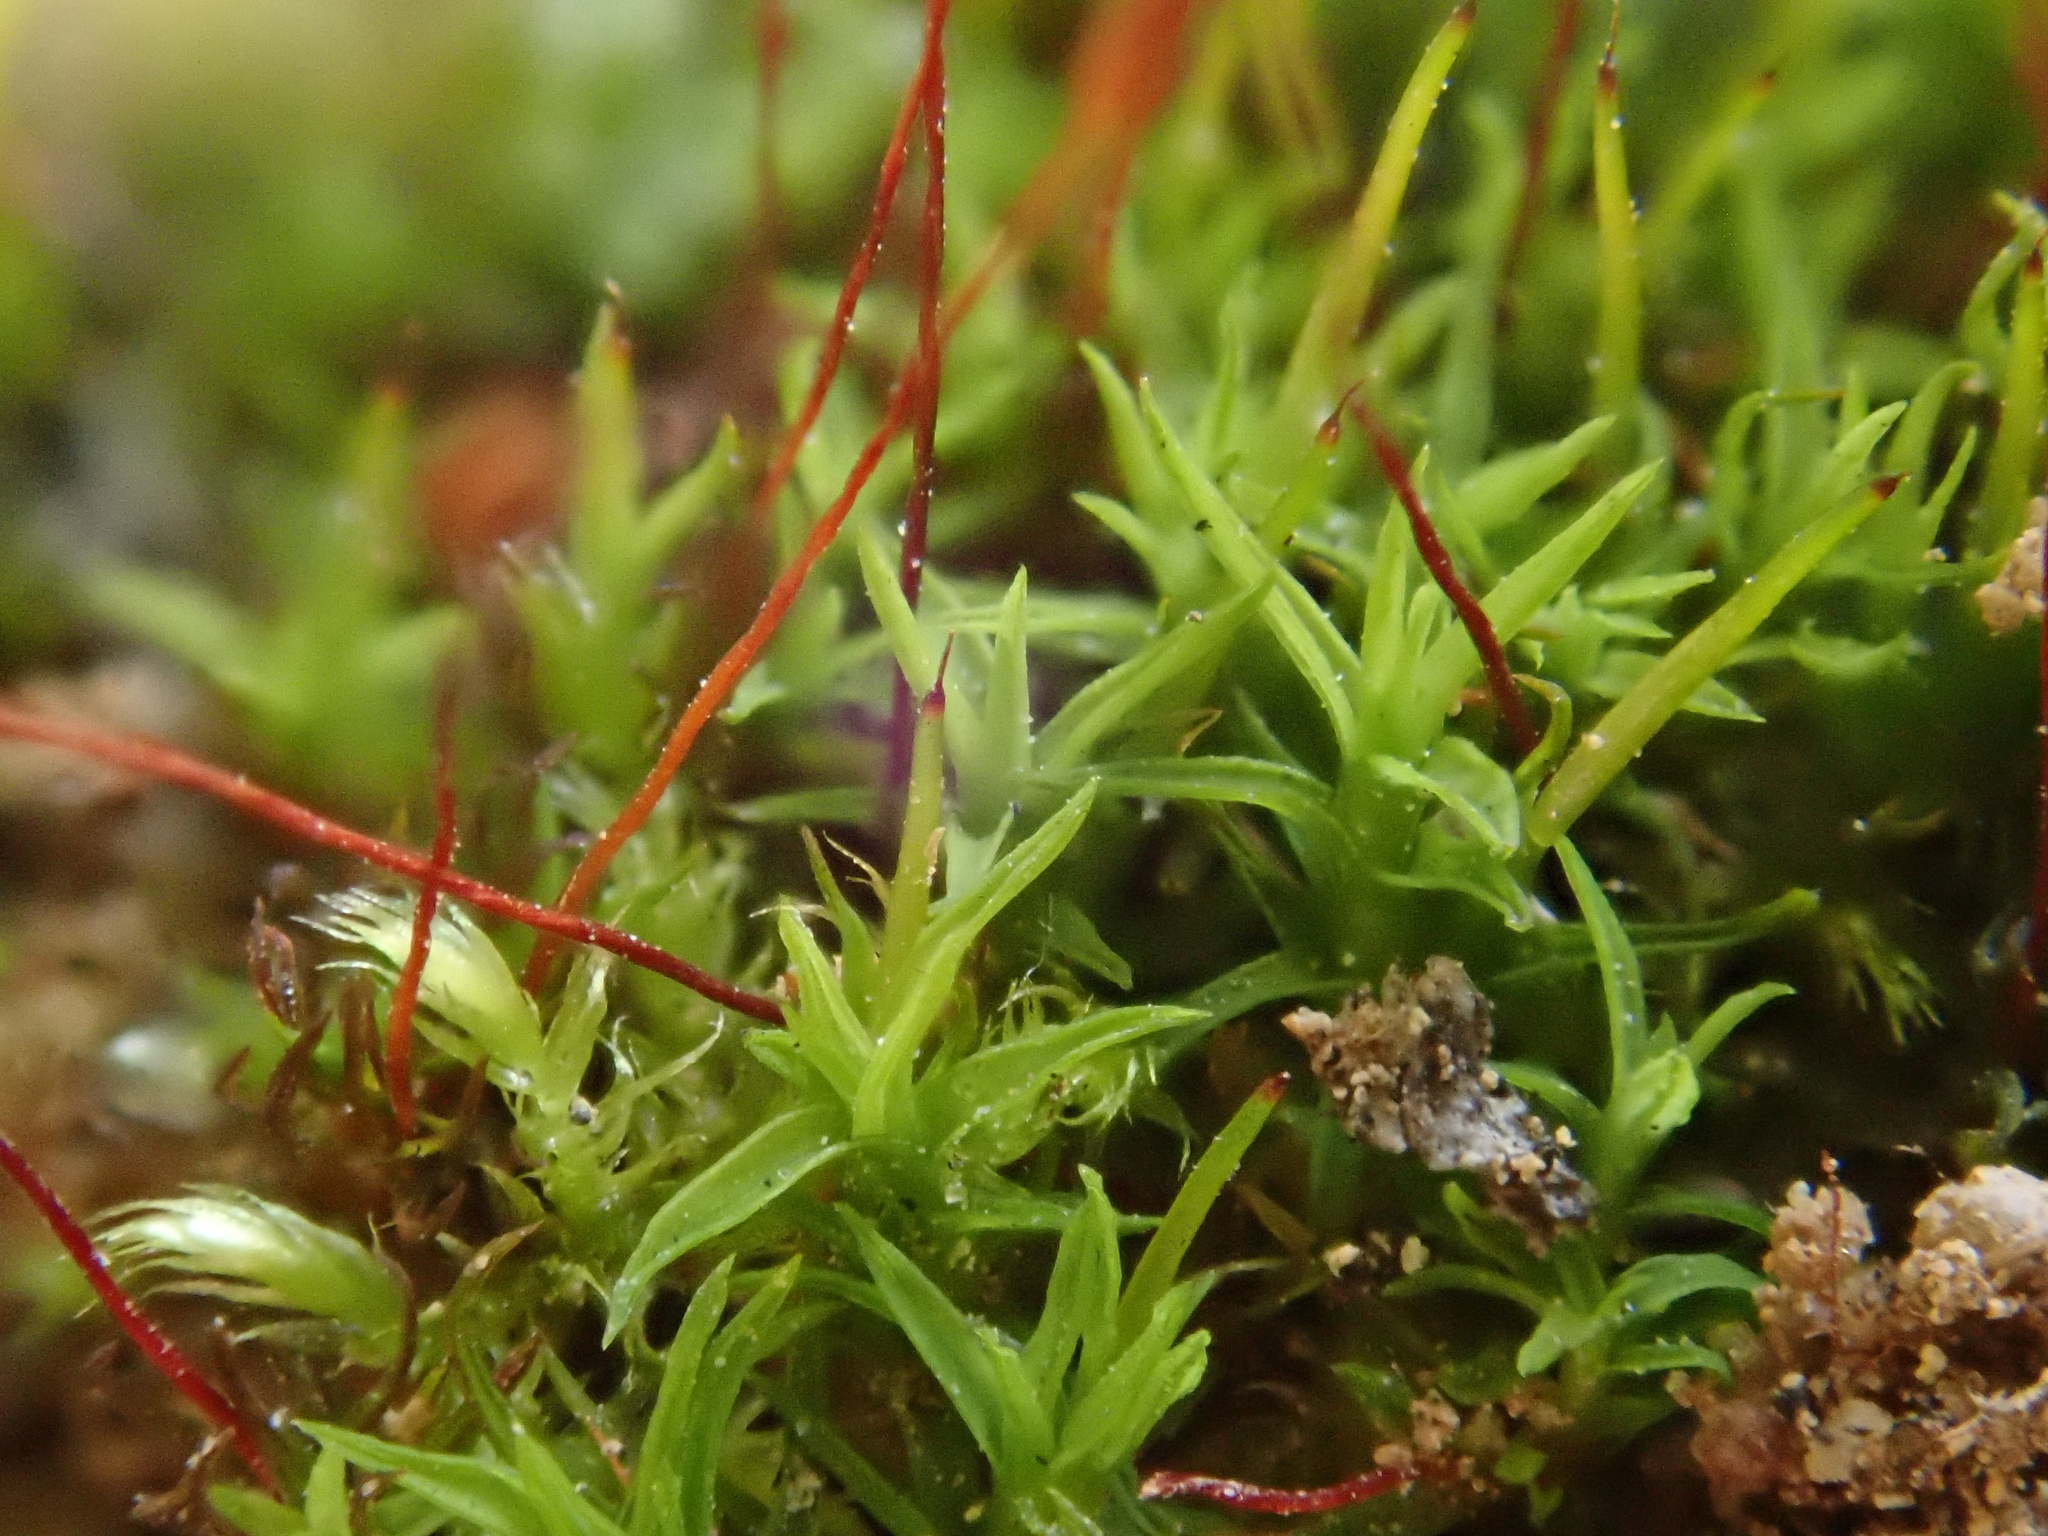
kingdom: Plantae
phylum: Bryophyta
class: Bryopsida
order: Pottiales
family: Pottiaceae
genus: Bryoerythrophyllum
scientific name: Bryoerythrophyllum recurvirostrum
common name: Red beard moss
